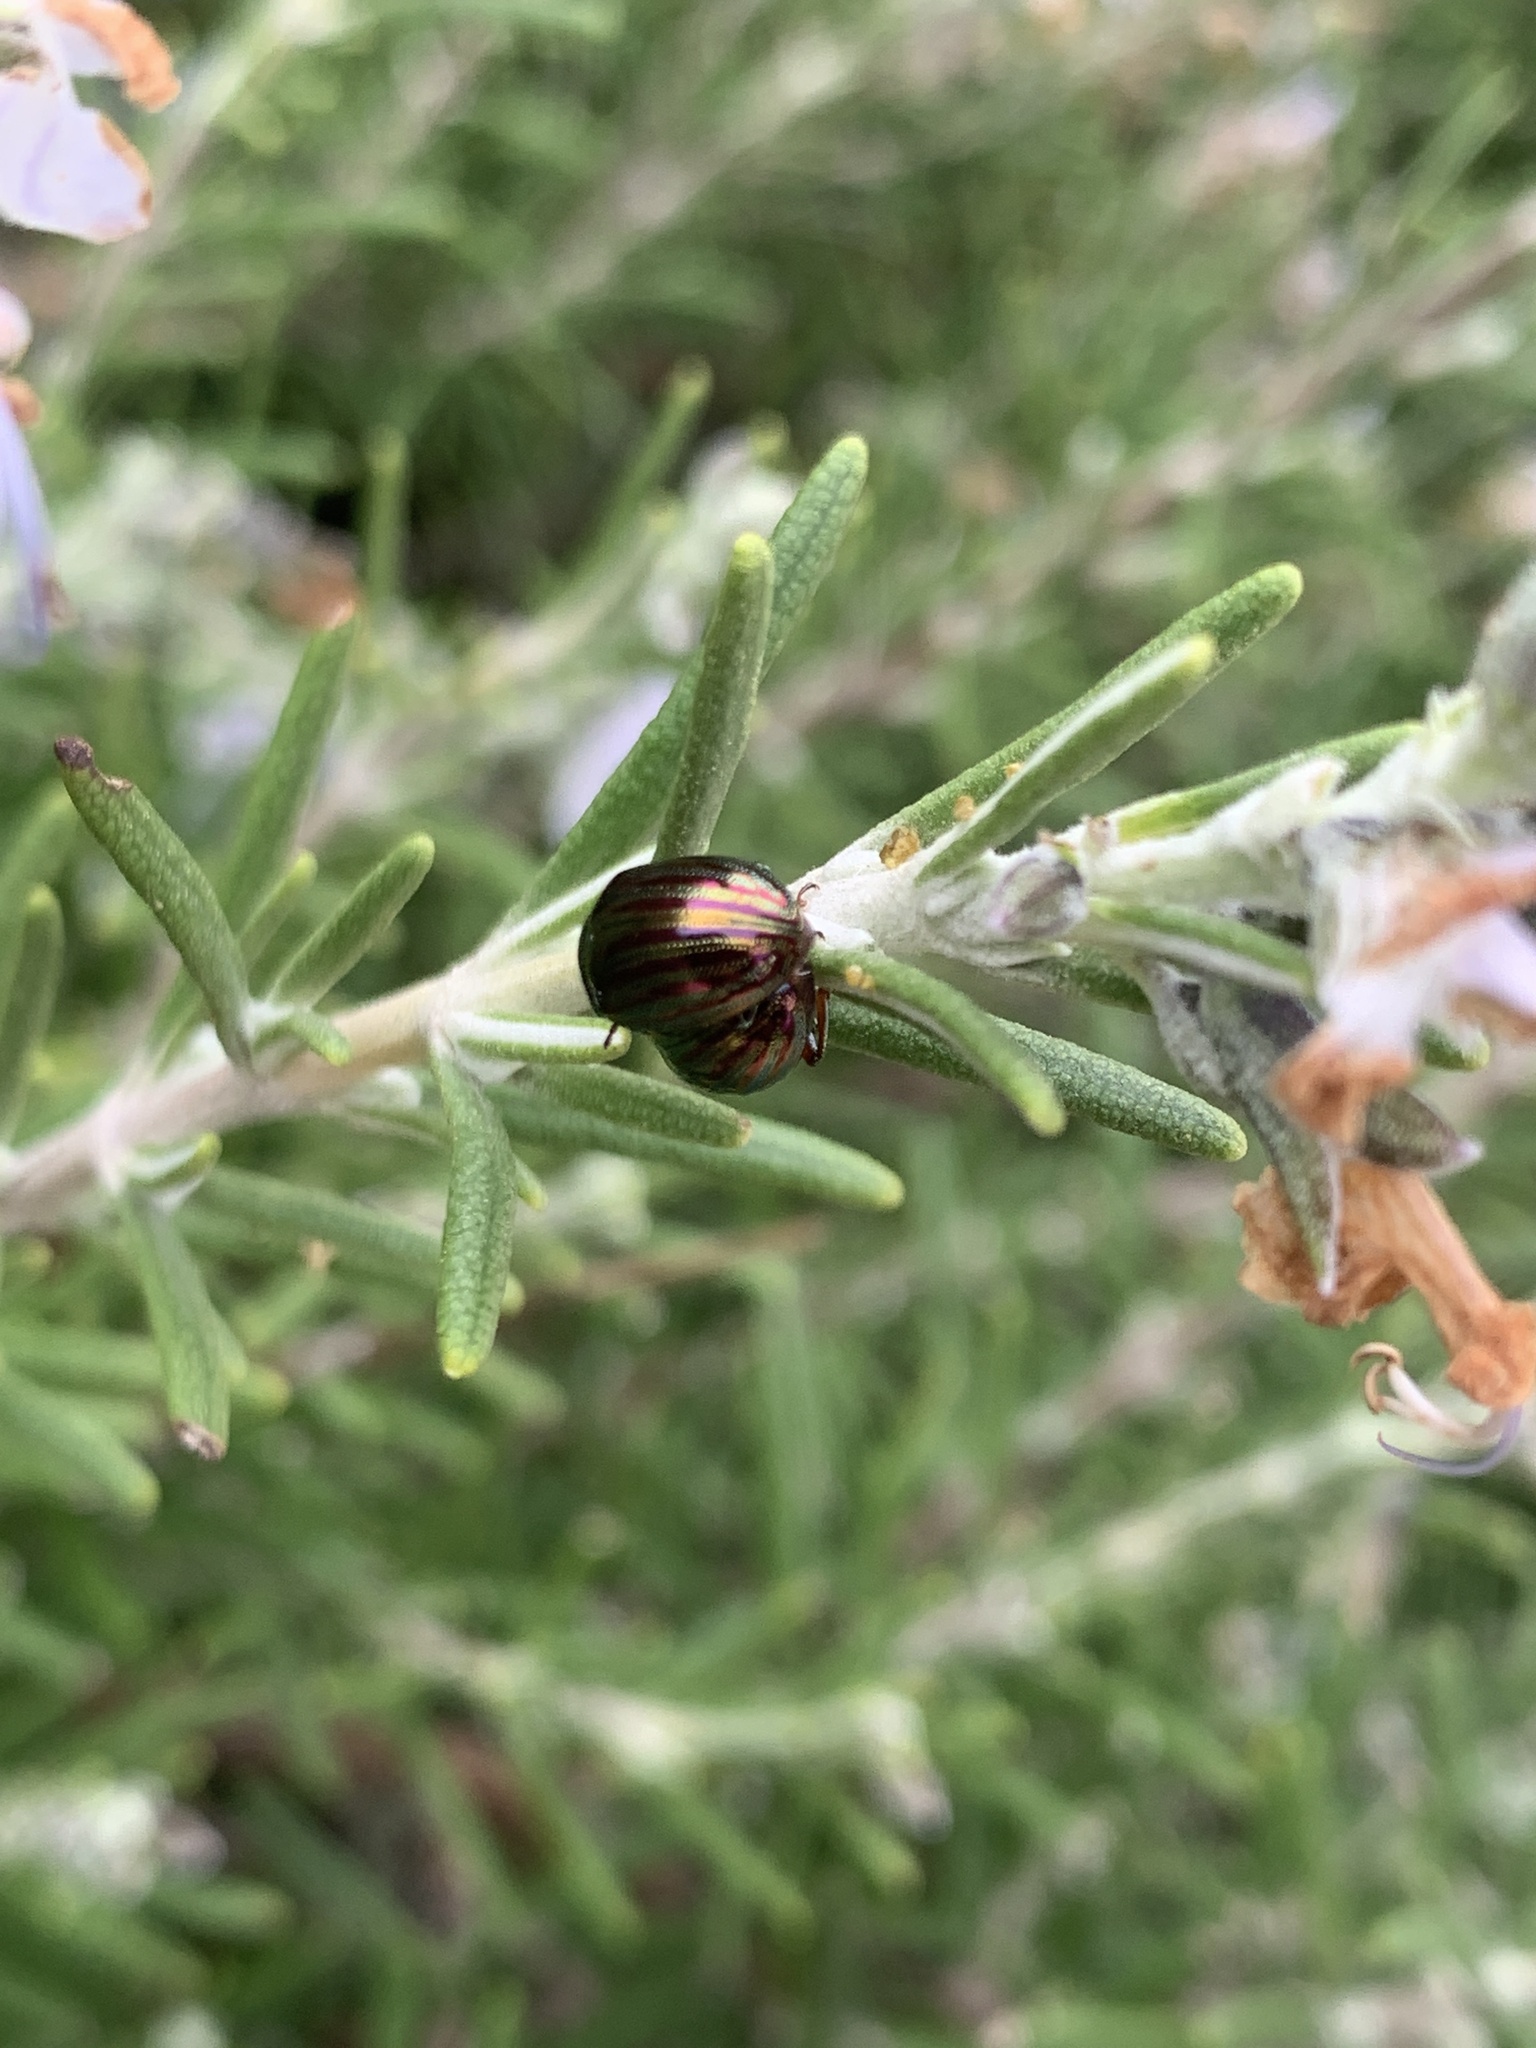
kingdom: Animalia
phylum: Arthropoda
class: Insecta
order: Coleoptera
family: Chrysomelidae
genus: Chrysolina
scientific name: Chrysolina americana
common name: Rosemary beetle
